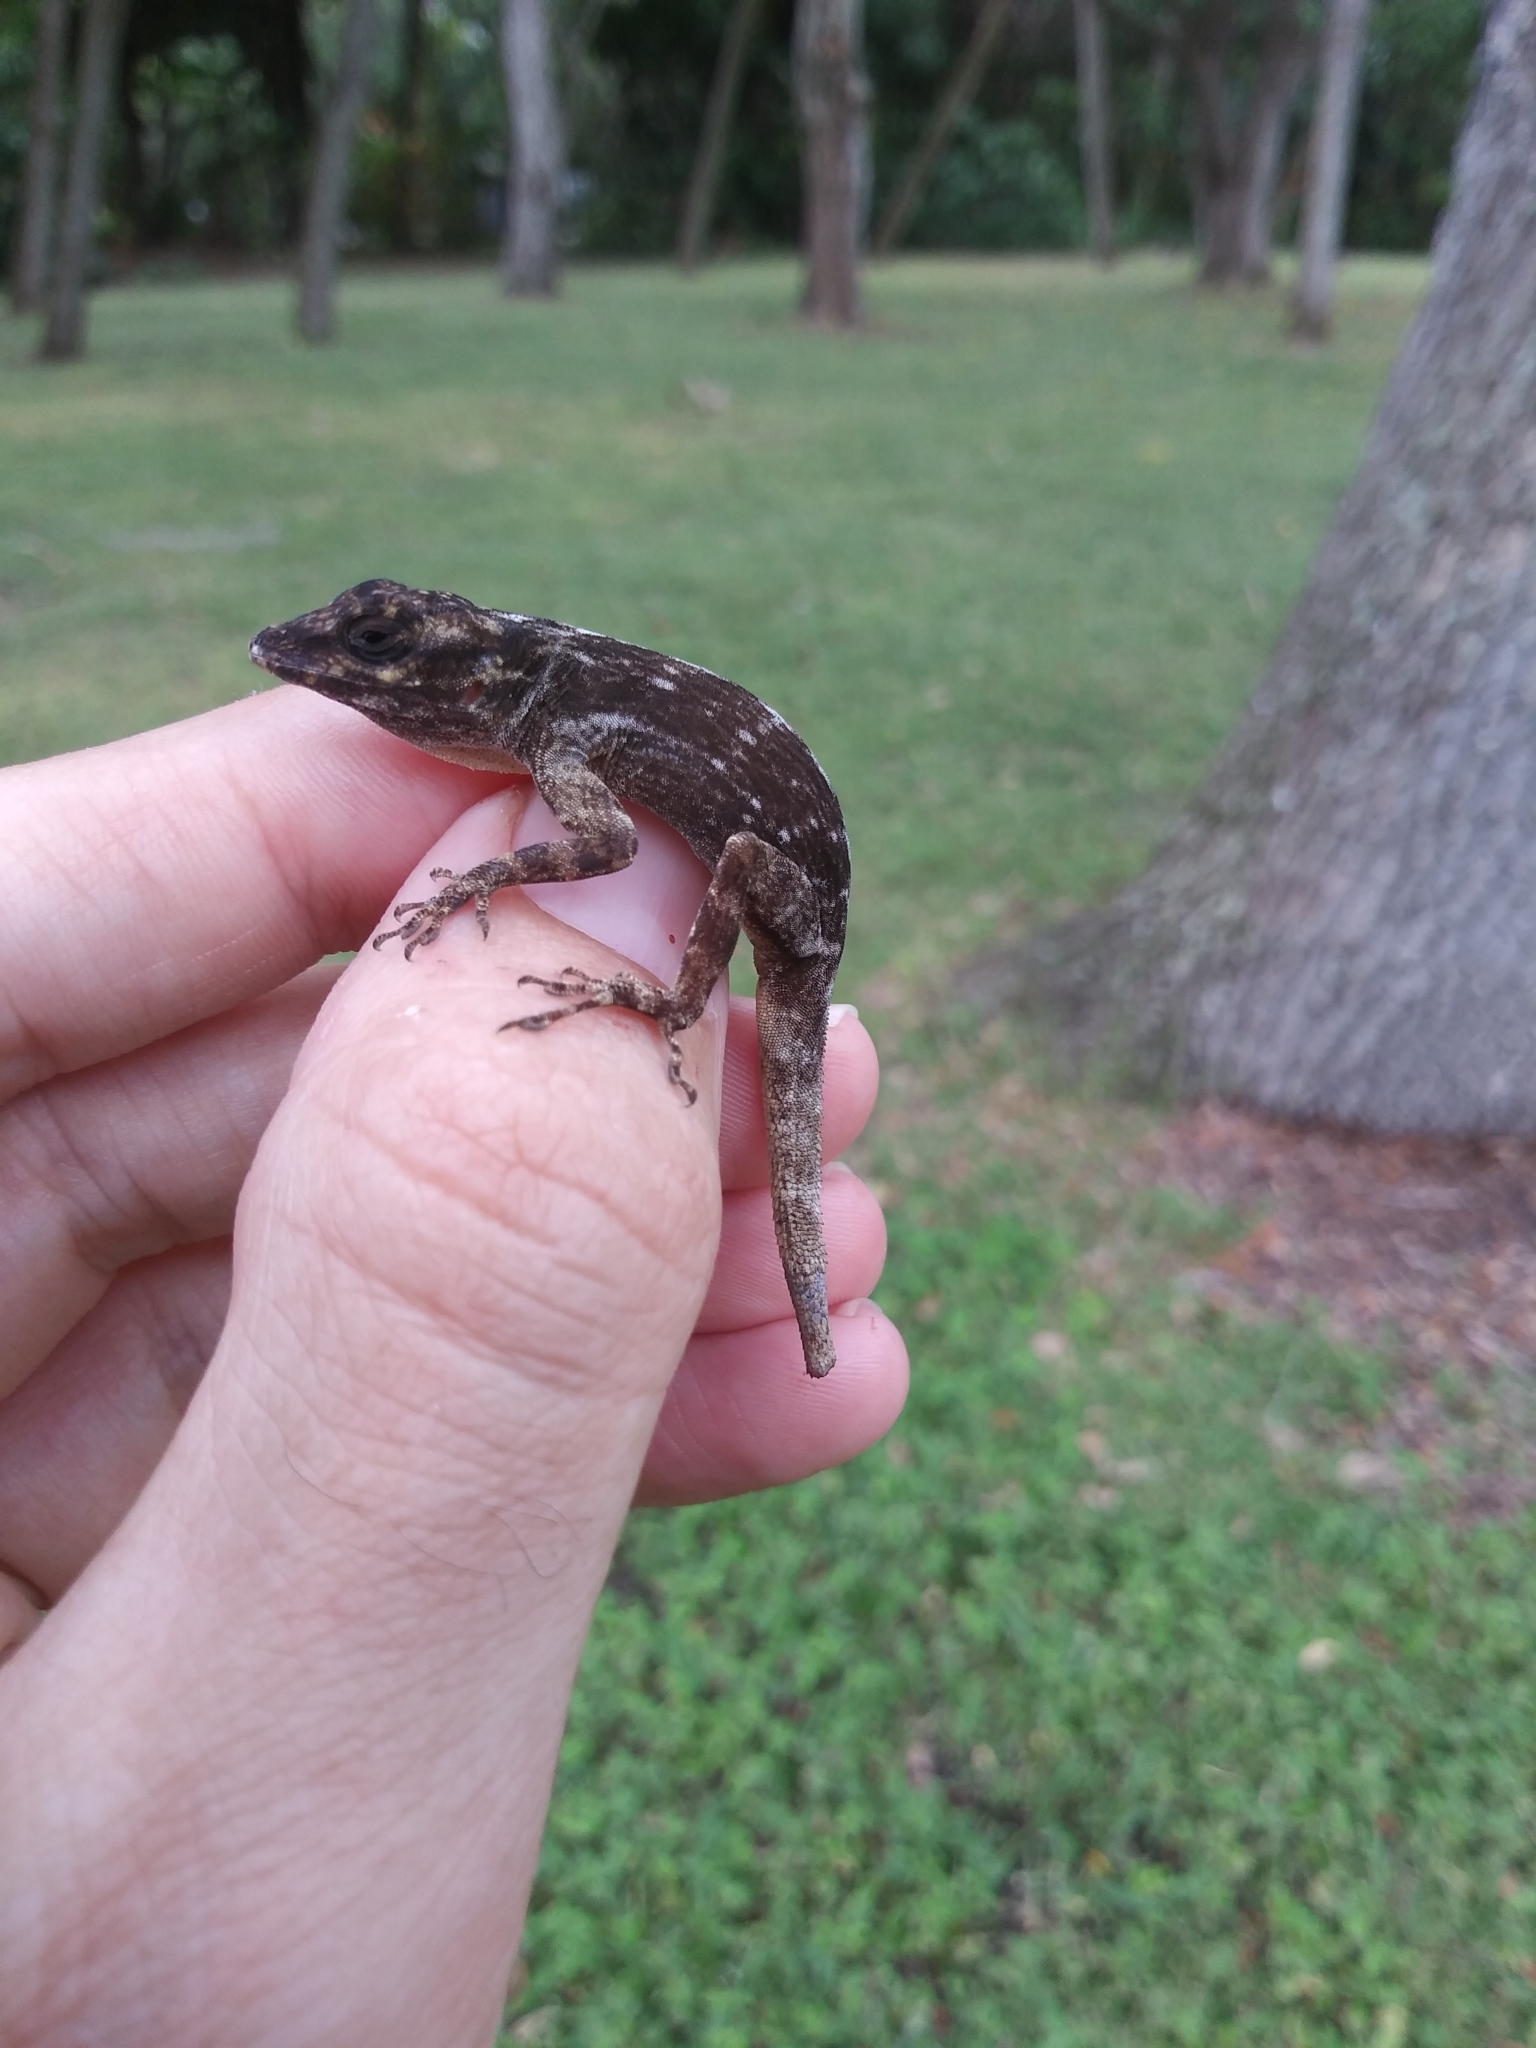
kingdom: Animalia
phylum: Chordata
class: Squamata
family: Dactyloidae
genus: Anolis
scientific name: Anolis distichus
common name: Bark anole
